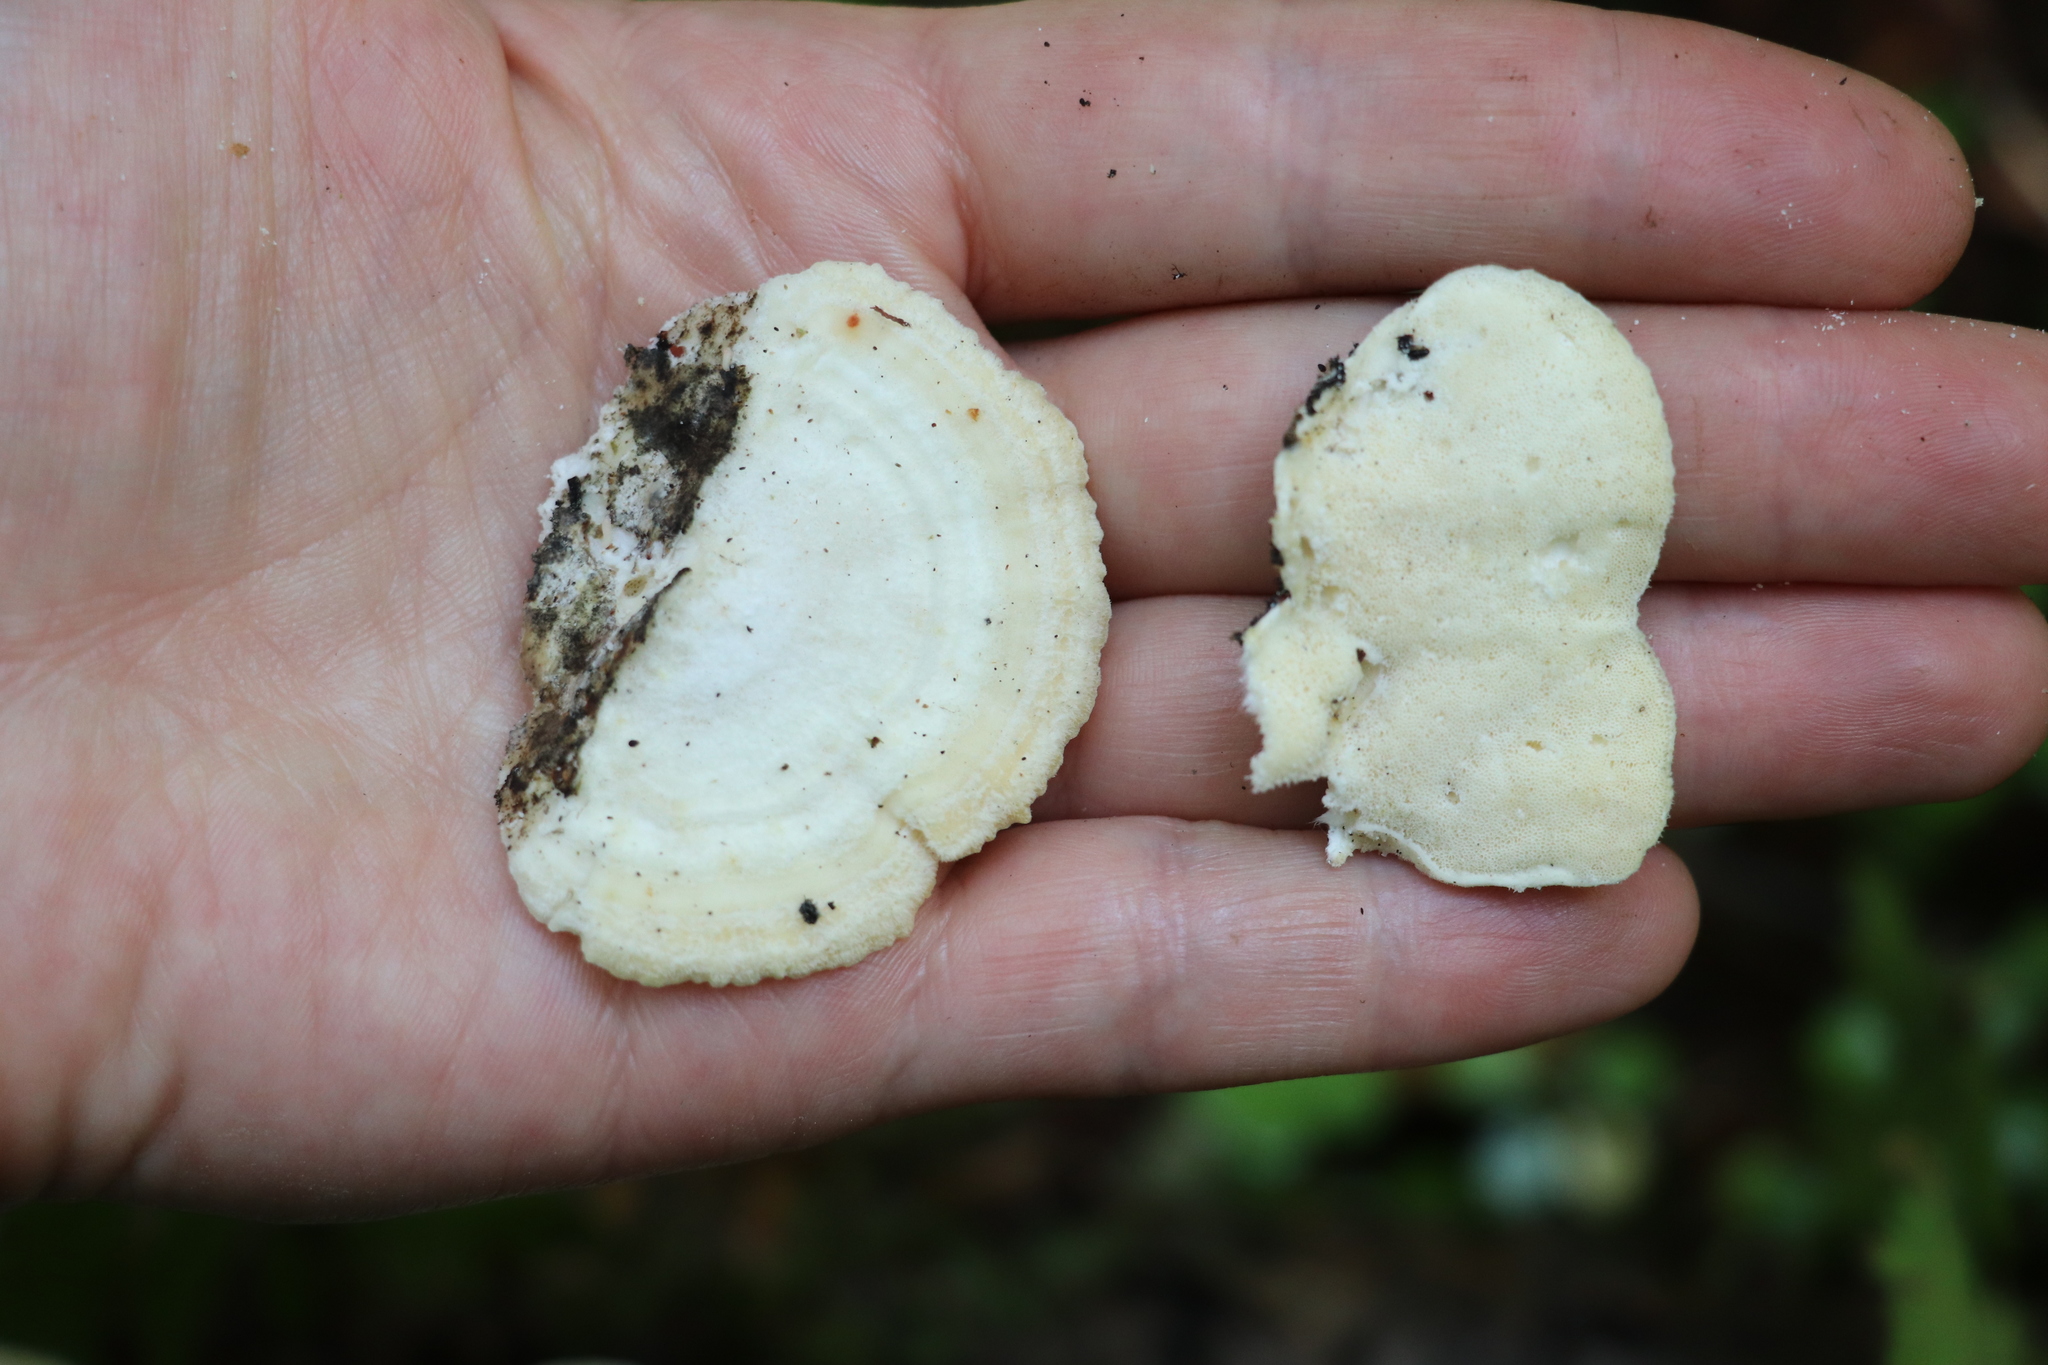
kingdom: Fungi
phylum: Basidiomycota
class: Agaricomycetes
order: Polyporales
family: Polyporaceae
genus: Trametes
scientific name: Trametes pubescens
